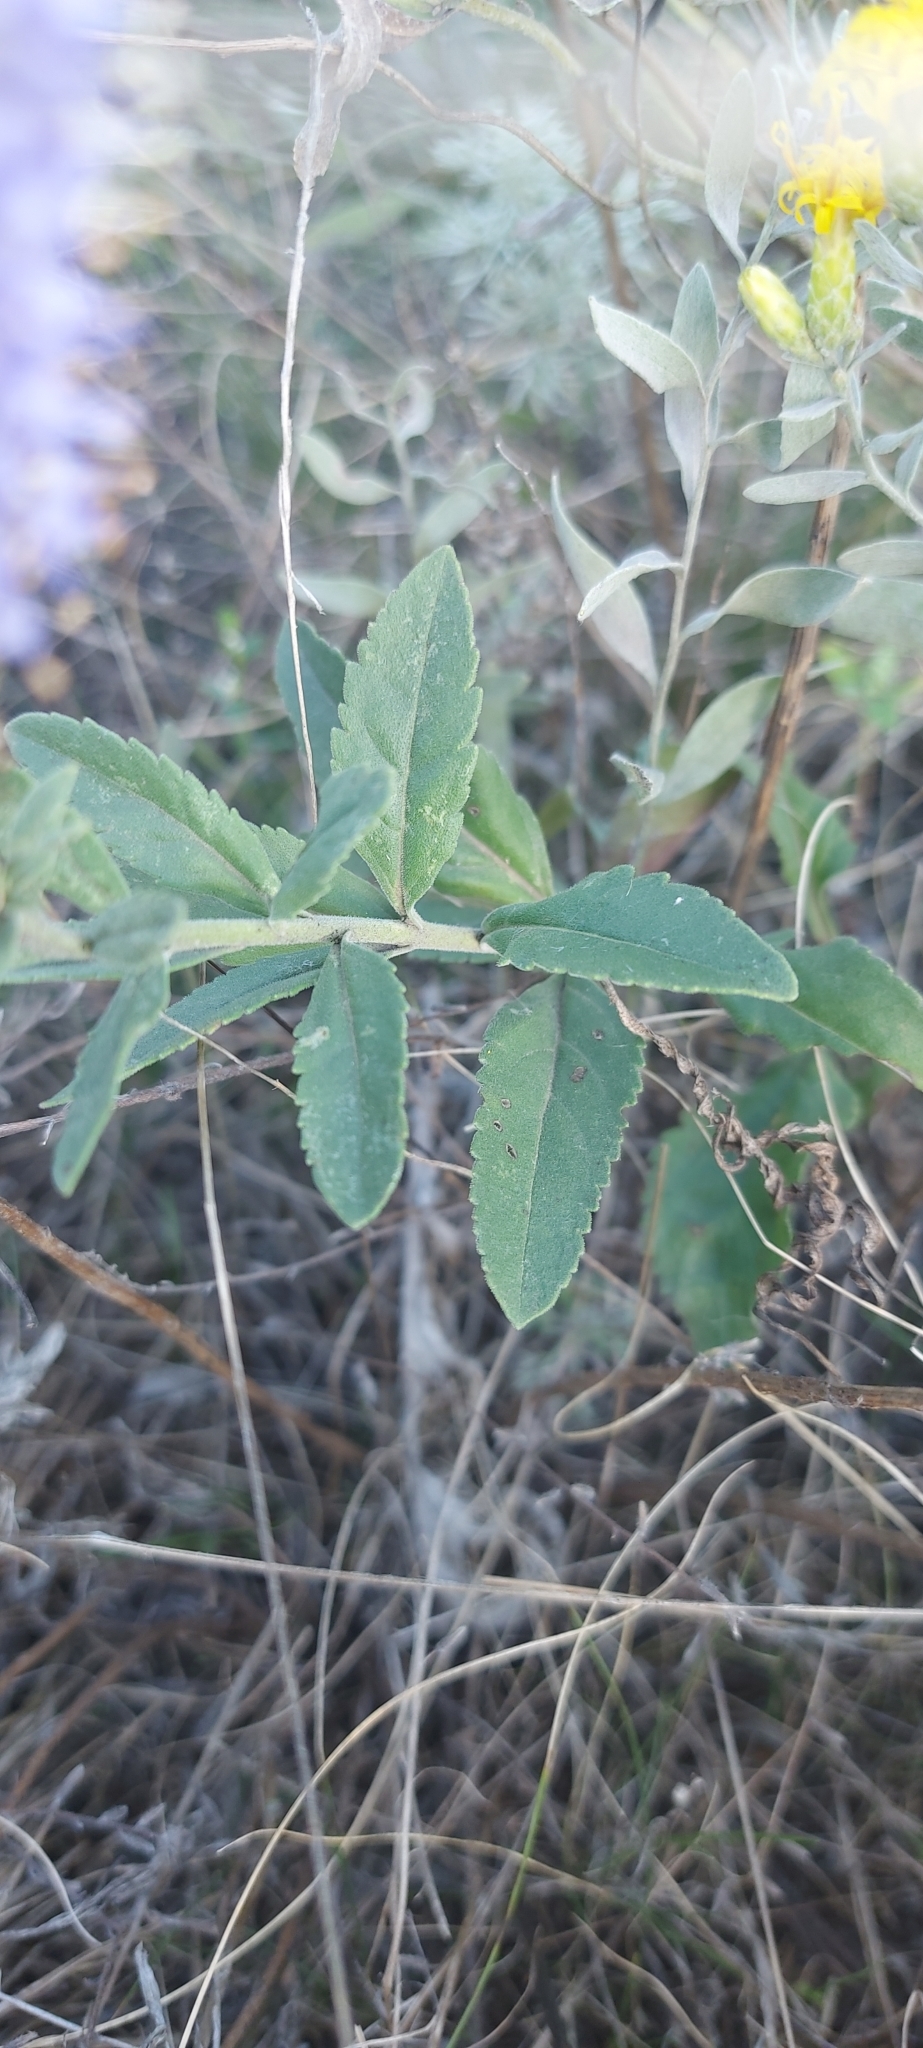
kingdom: Plantae
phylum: Tracheophyta
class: Magnoliopsida
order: Lamiales
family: Plantaginaceae
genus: Veronica
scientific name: Veronica spicata
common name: Spiked speedwell
